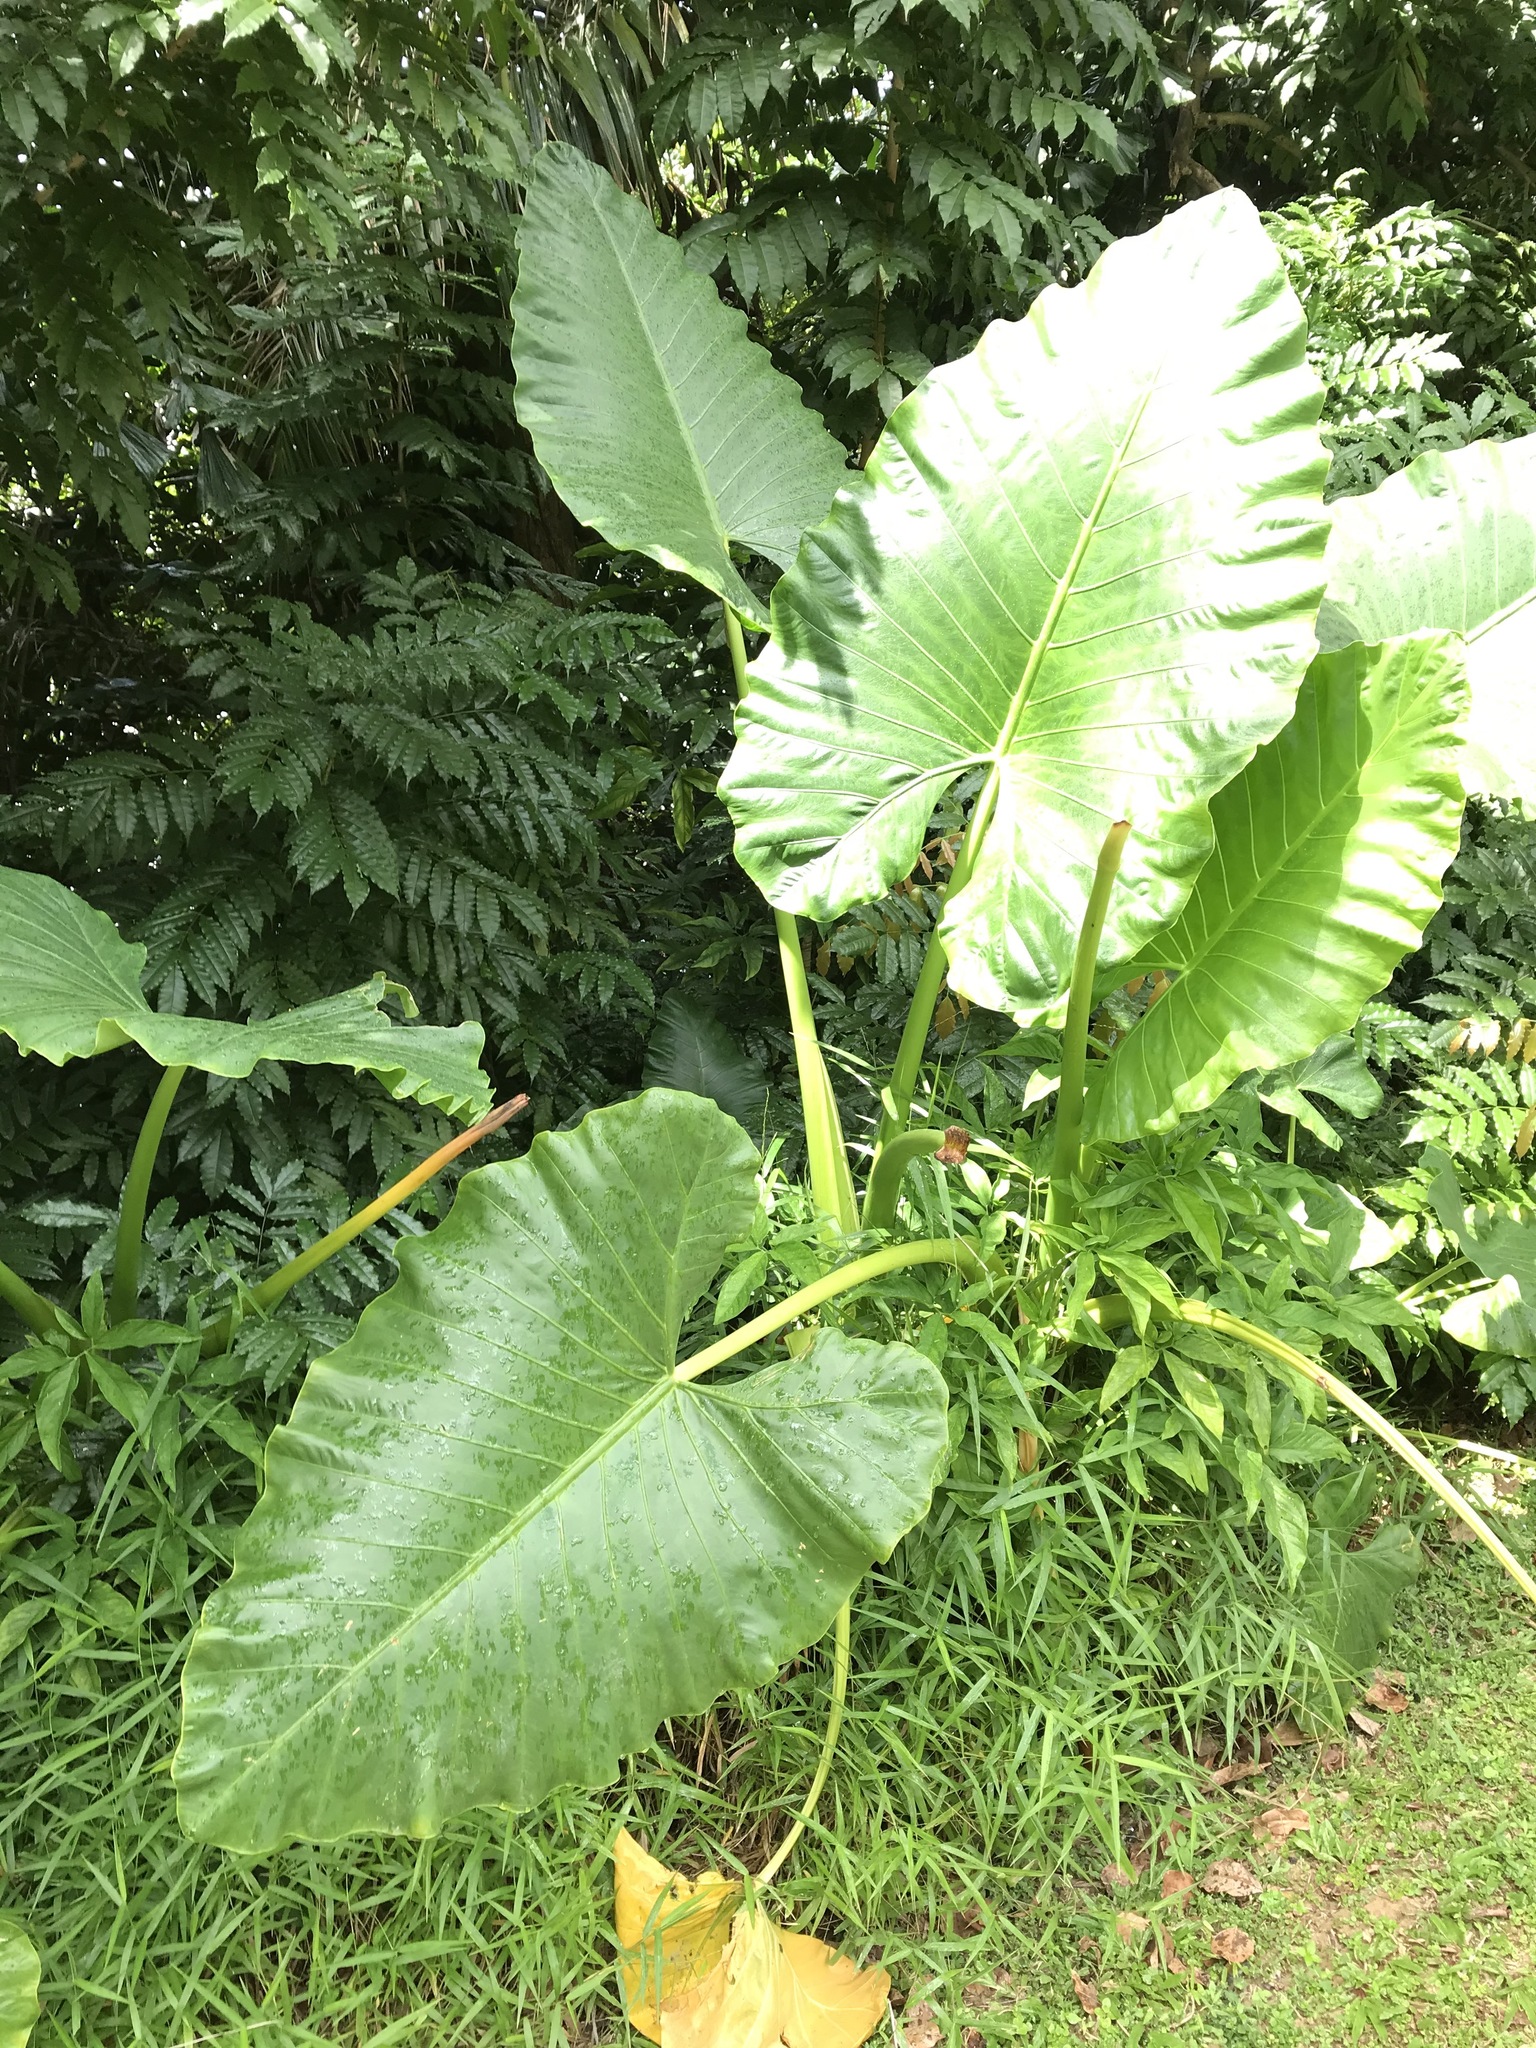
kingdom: Plantae
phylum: Tracheophyta
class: Liliopsida
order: Alismatales
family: Araceae
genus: Alocasia
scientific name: Alocasia macrorrhizos
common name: Giant taro
